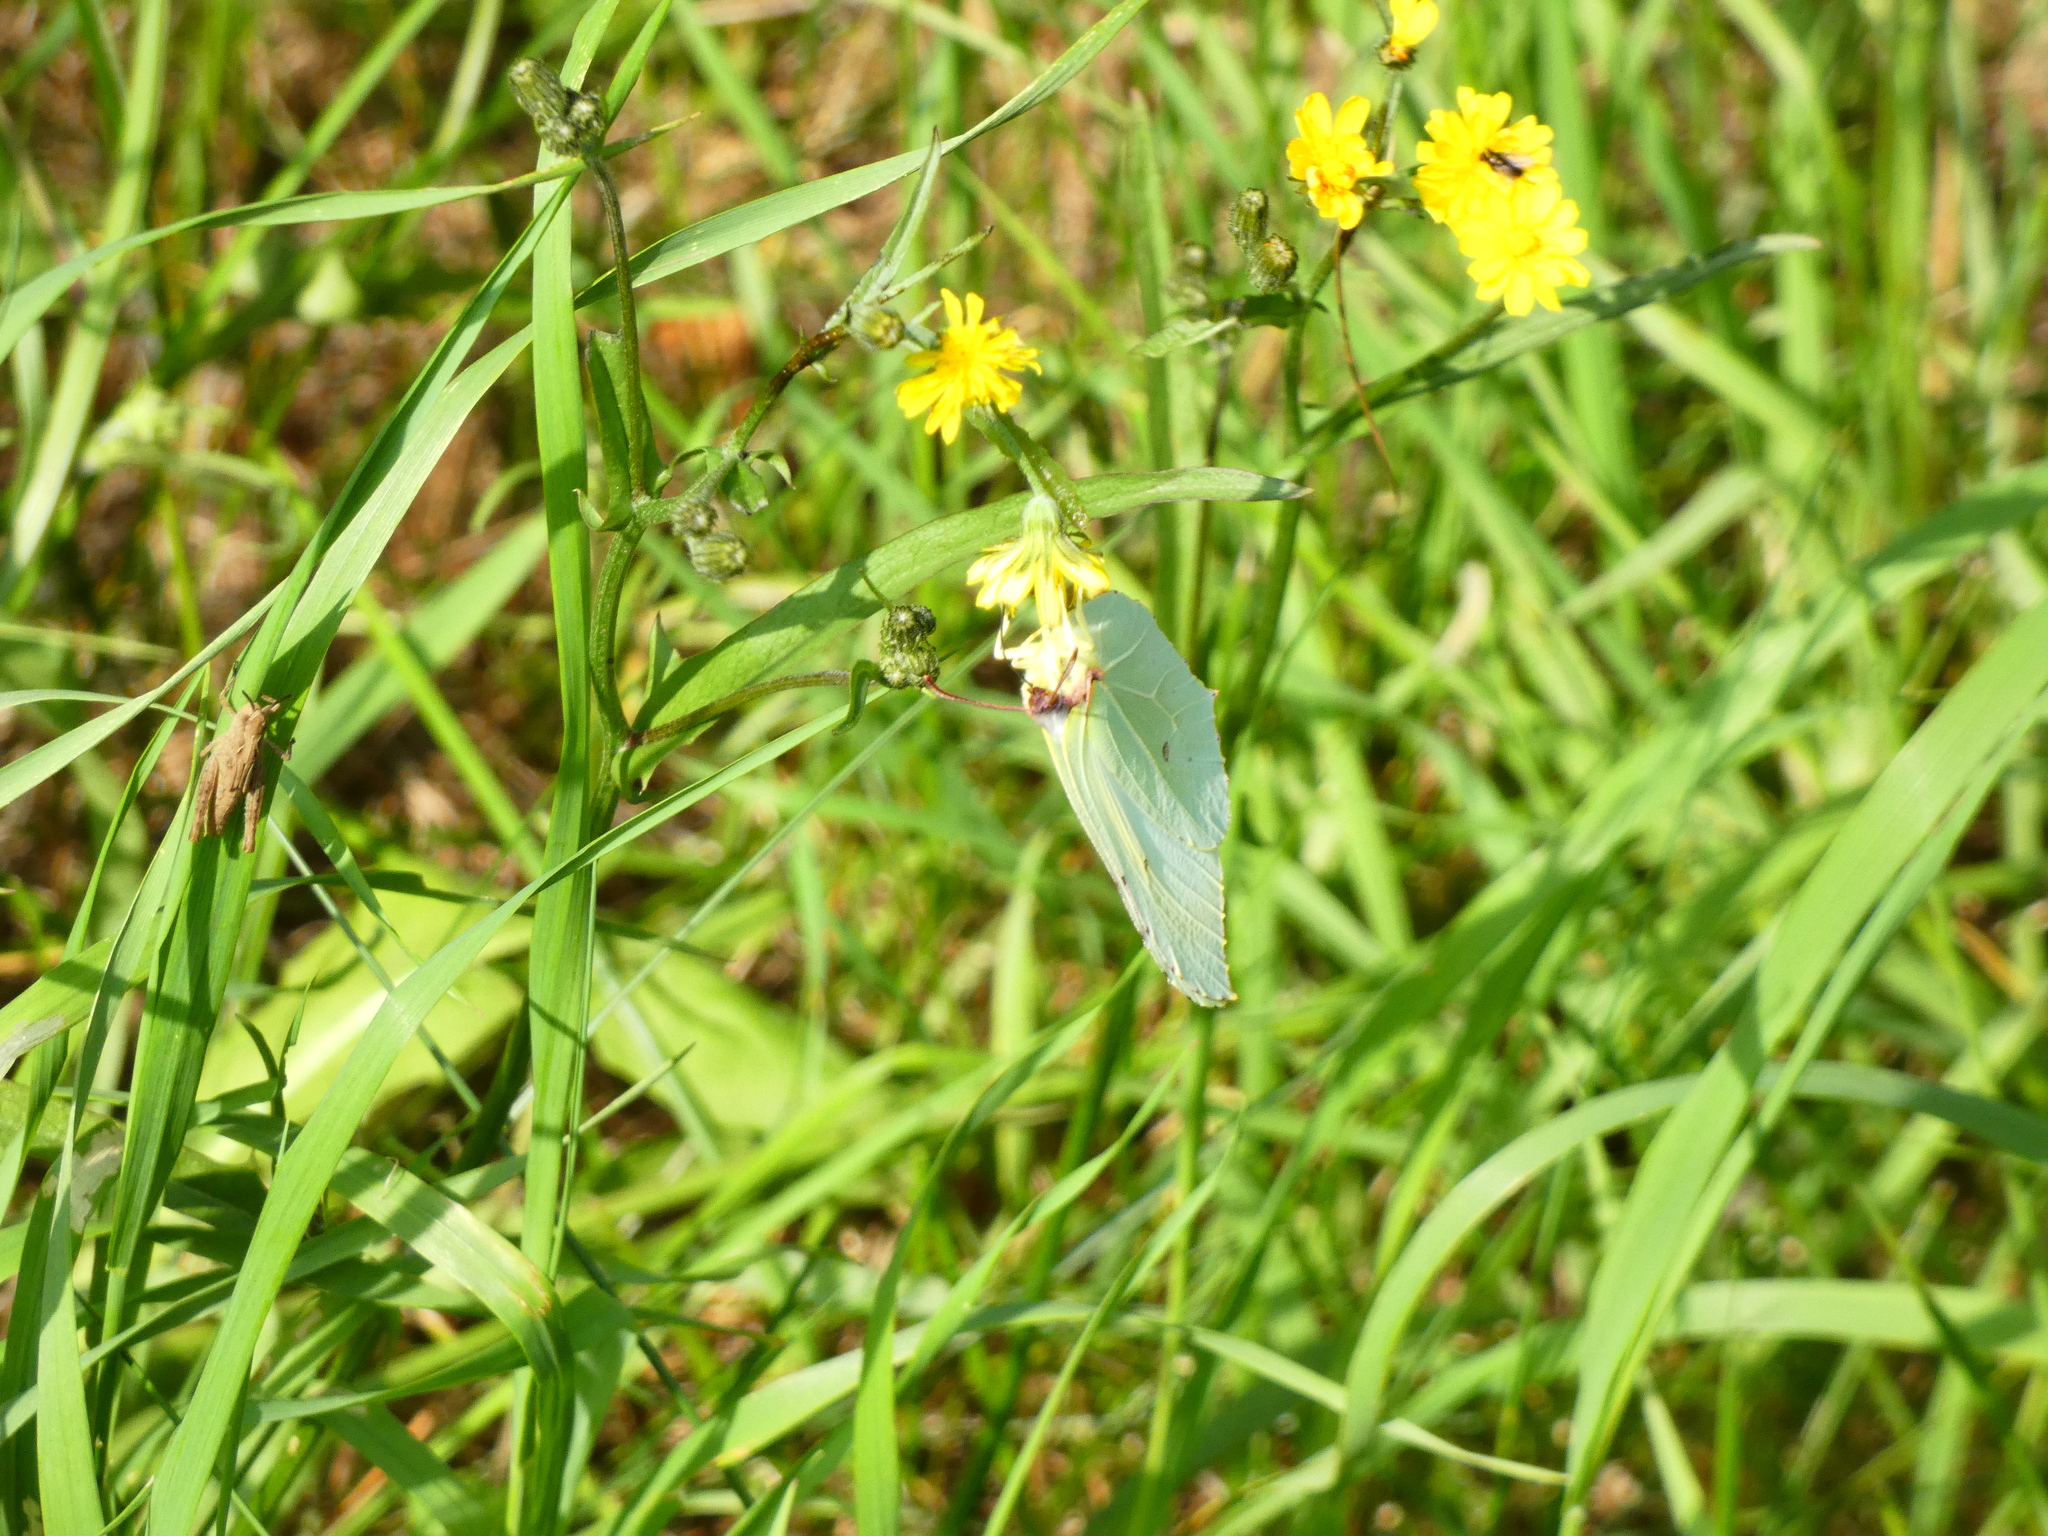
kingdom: Animalia
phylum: Arthropoda
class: Insecta
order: Lepidoptera
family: Pieridae
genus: Gonepteryx
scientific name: Gonepteryx rhamni
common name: Brimstone
